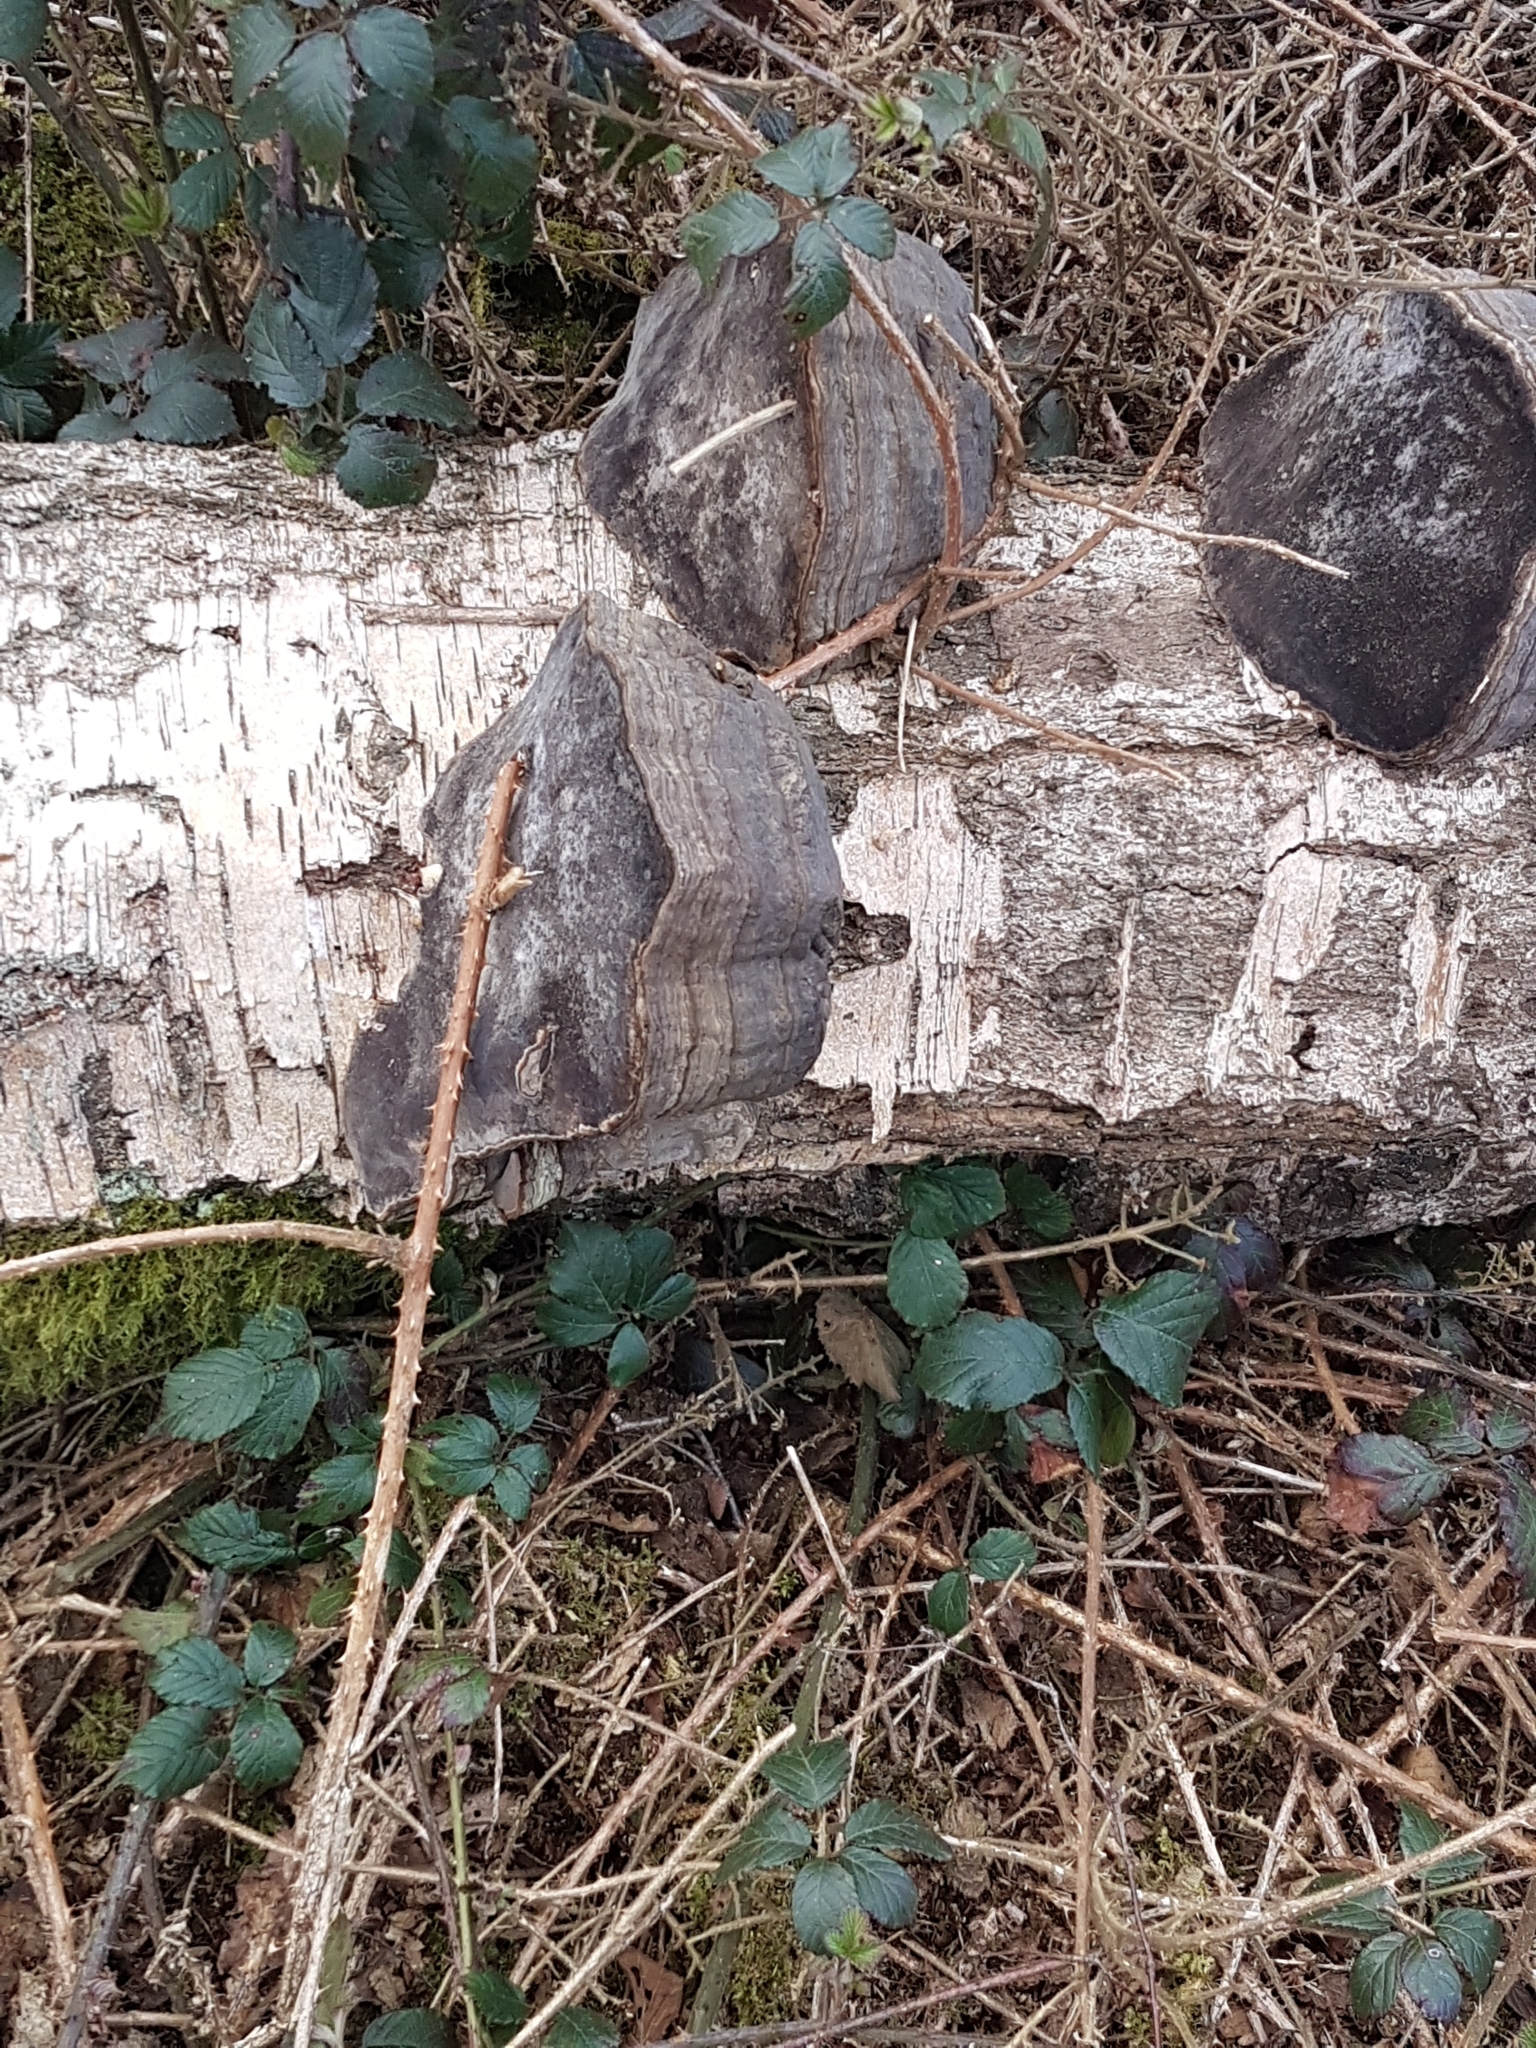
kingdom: Fungi
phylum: Basidiomycota
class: Agaricomycetes
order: Polyporales
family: Polyporaceae
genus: Fomes
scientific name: Fomes fomentarius
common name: Hoof fungus
